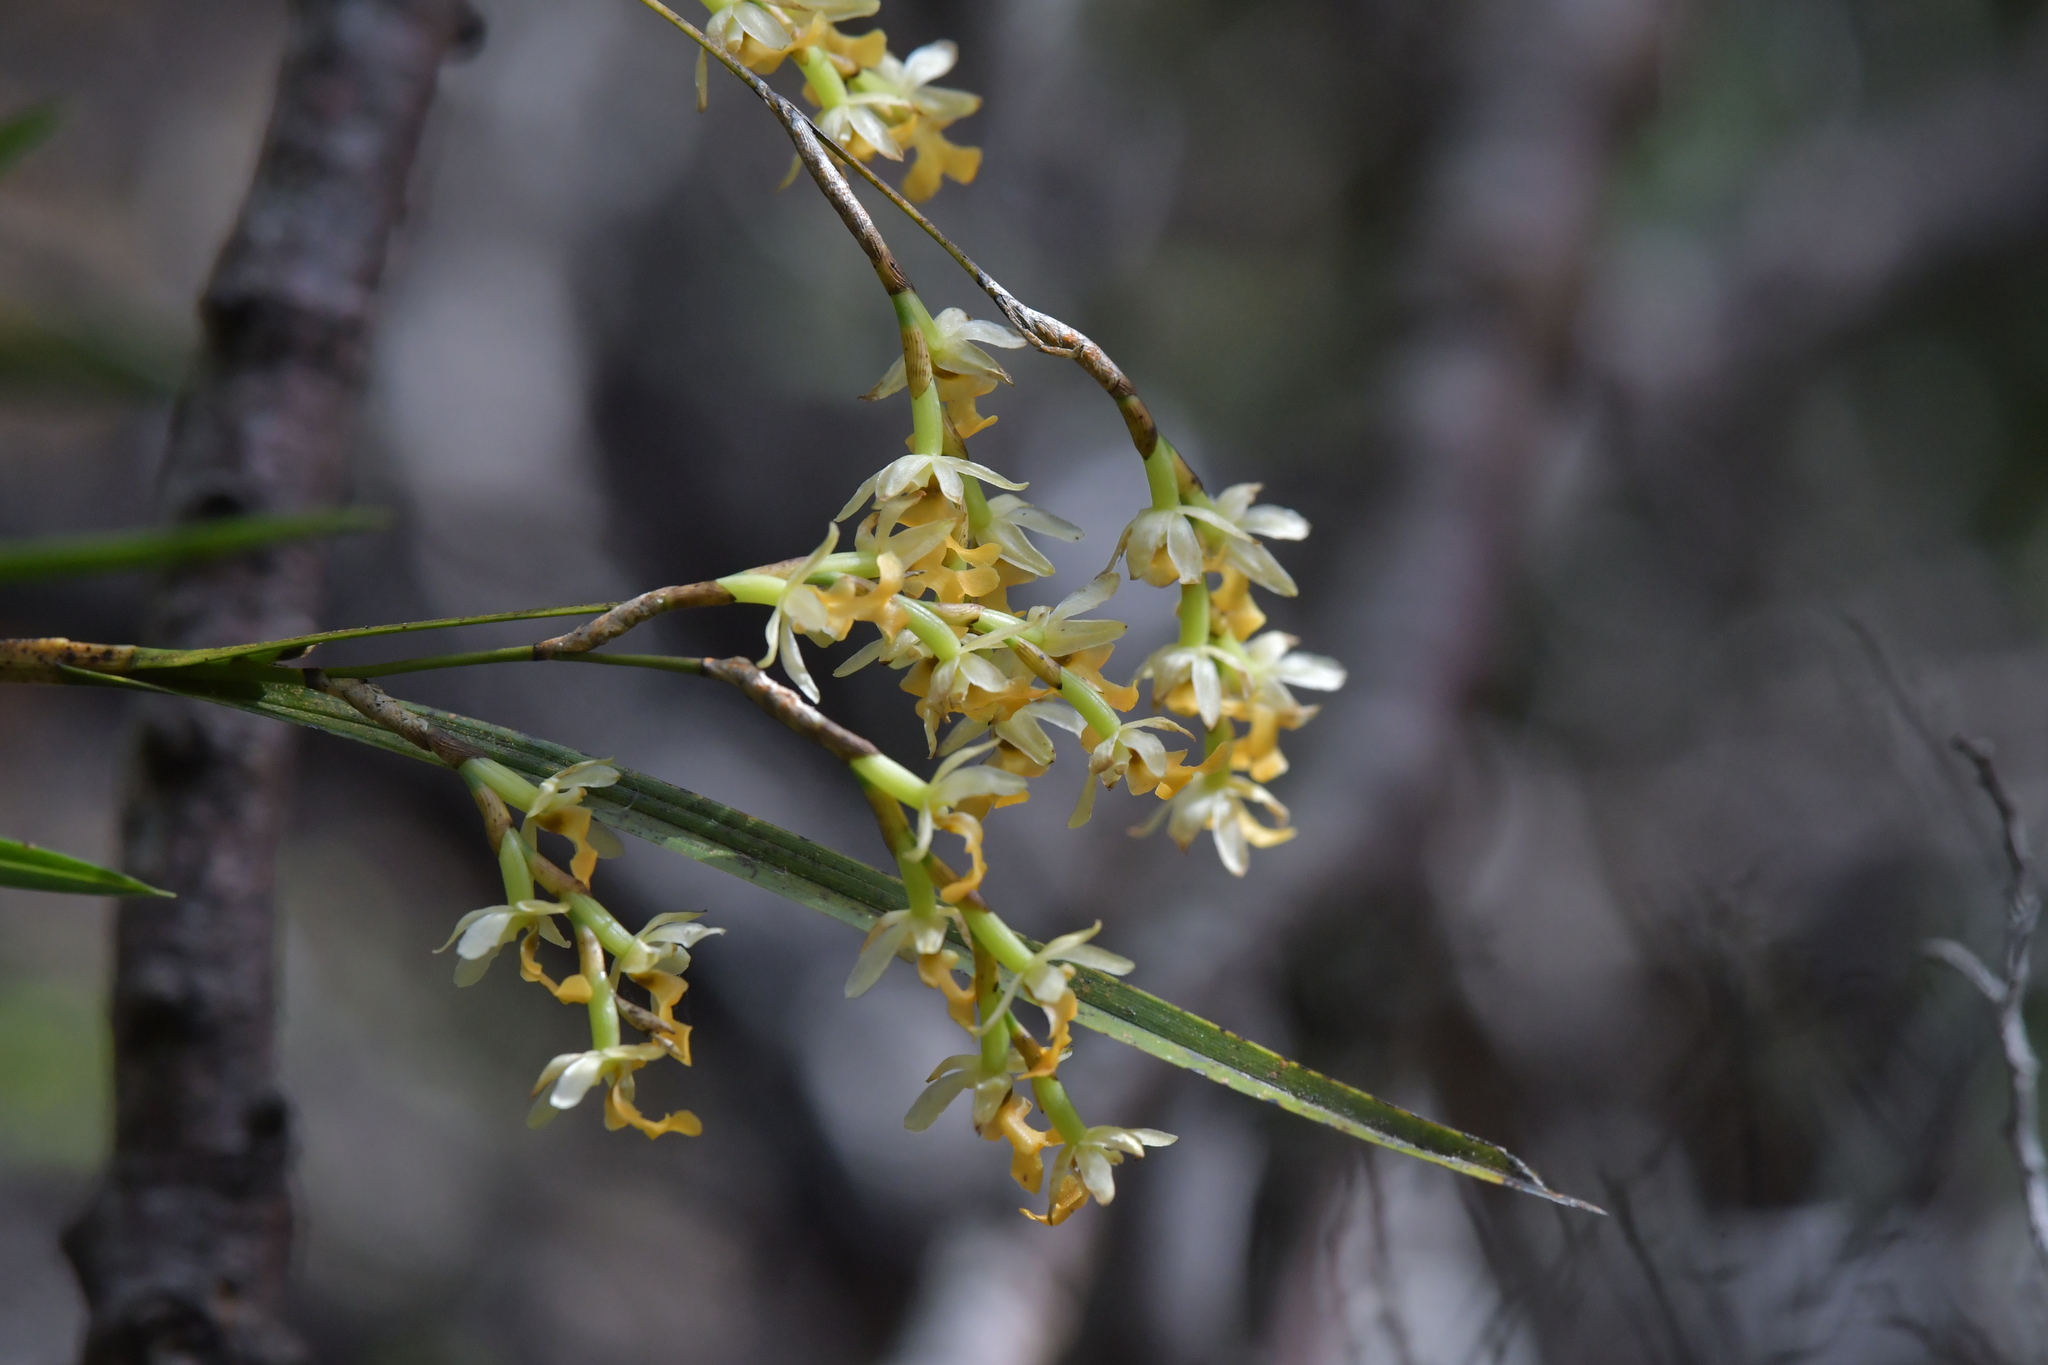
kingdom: Plantae
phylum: Tracheophyta
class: Liliopsida
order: Asparagales
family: Orchidaceae
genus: Earina
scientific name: Earina mucronata
